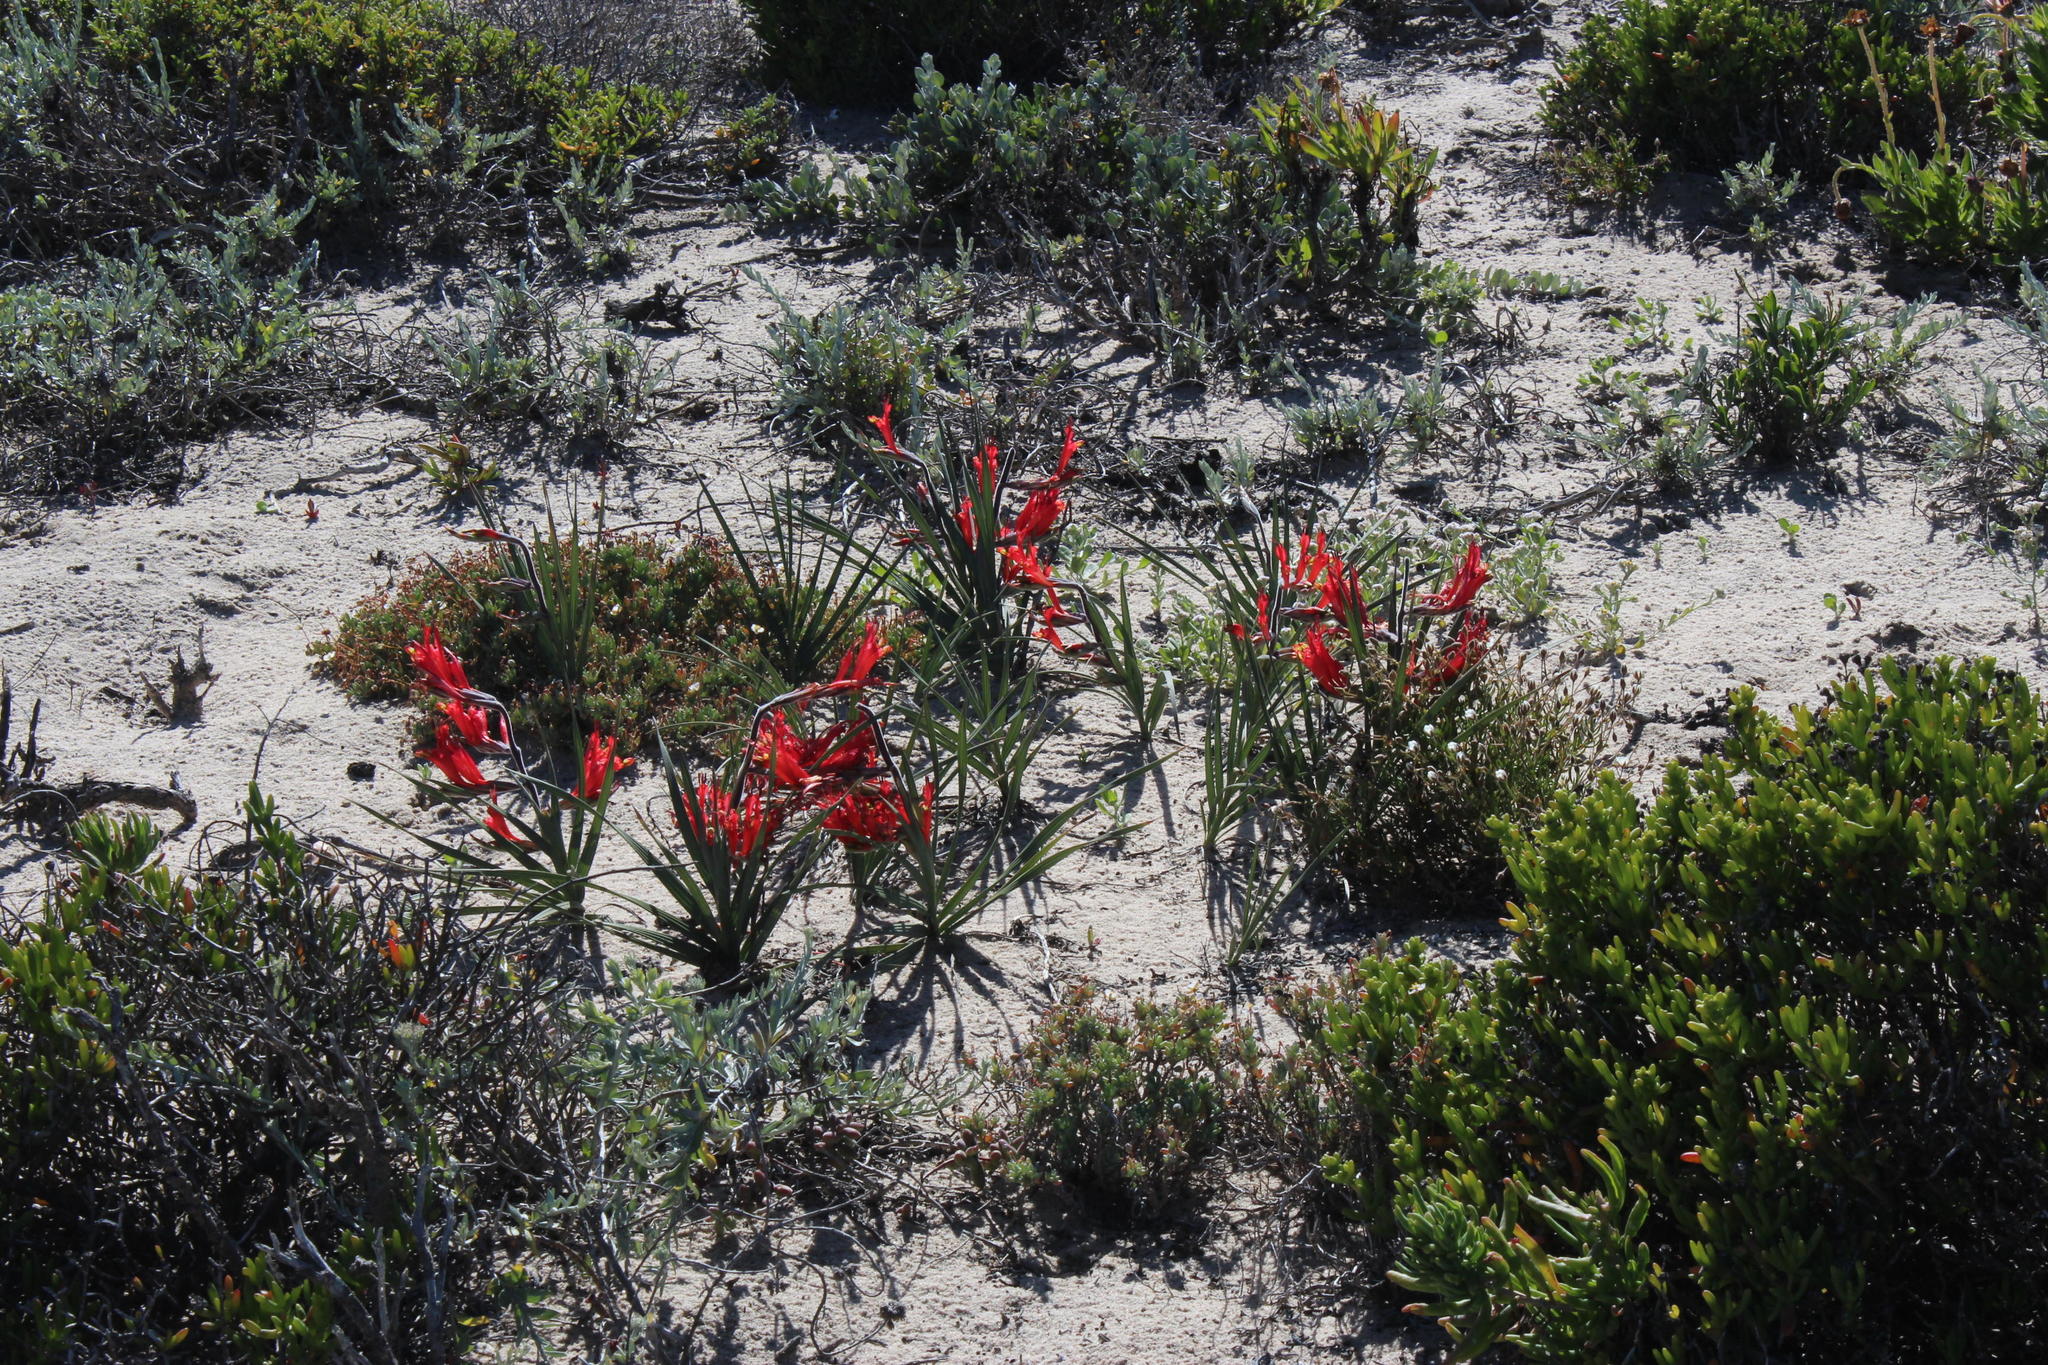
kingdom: Plantae
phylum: Tracheophyta
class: Liliopsida
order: Asparagales
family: Iridaceae
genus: Babiana
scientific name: Babiana hirsuta
